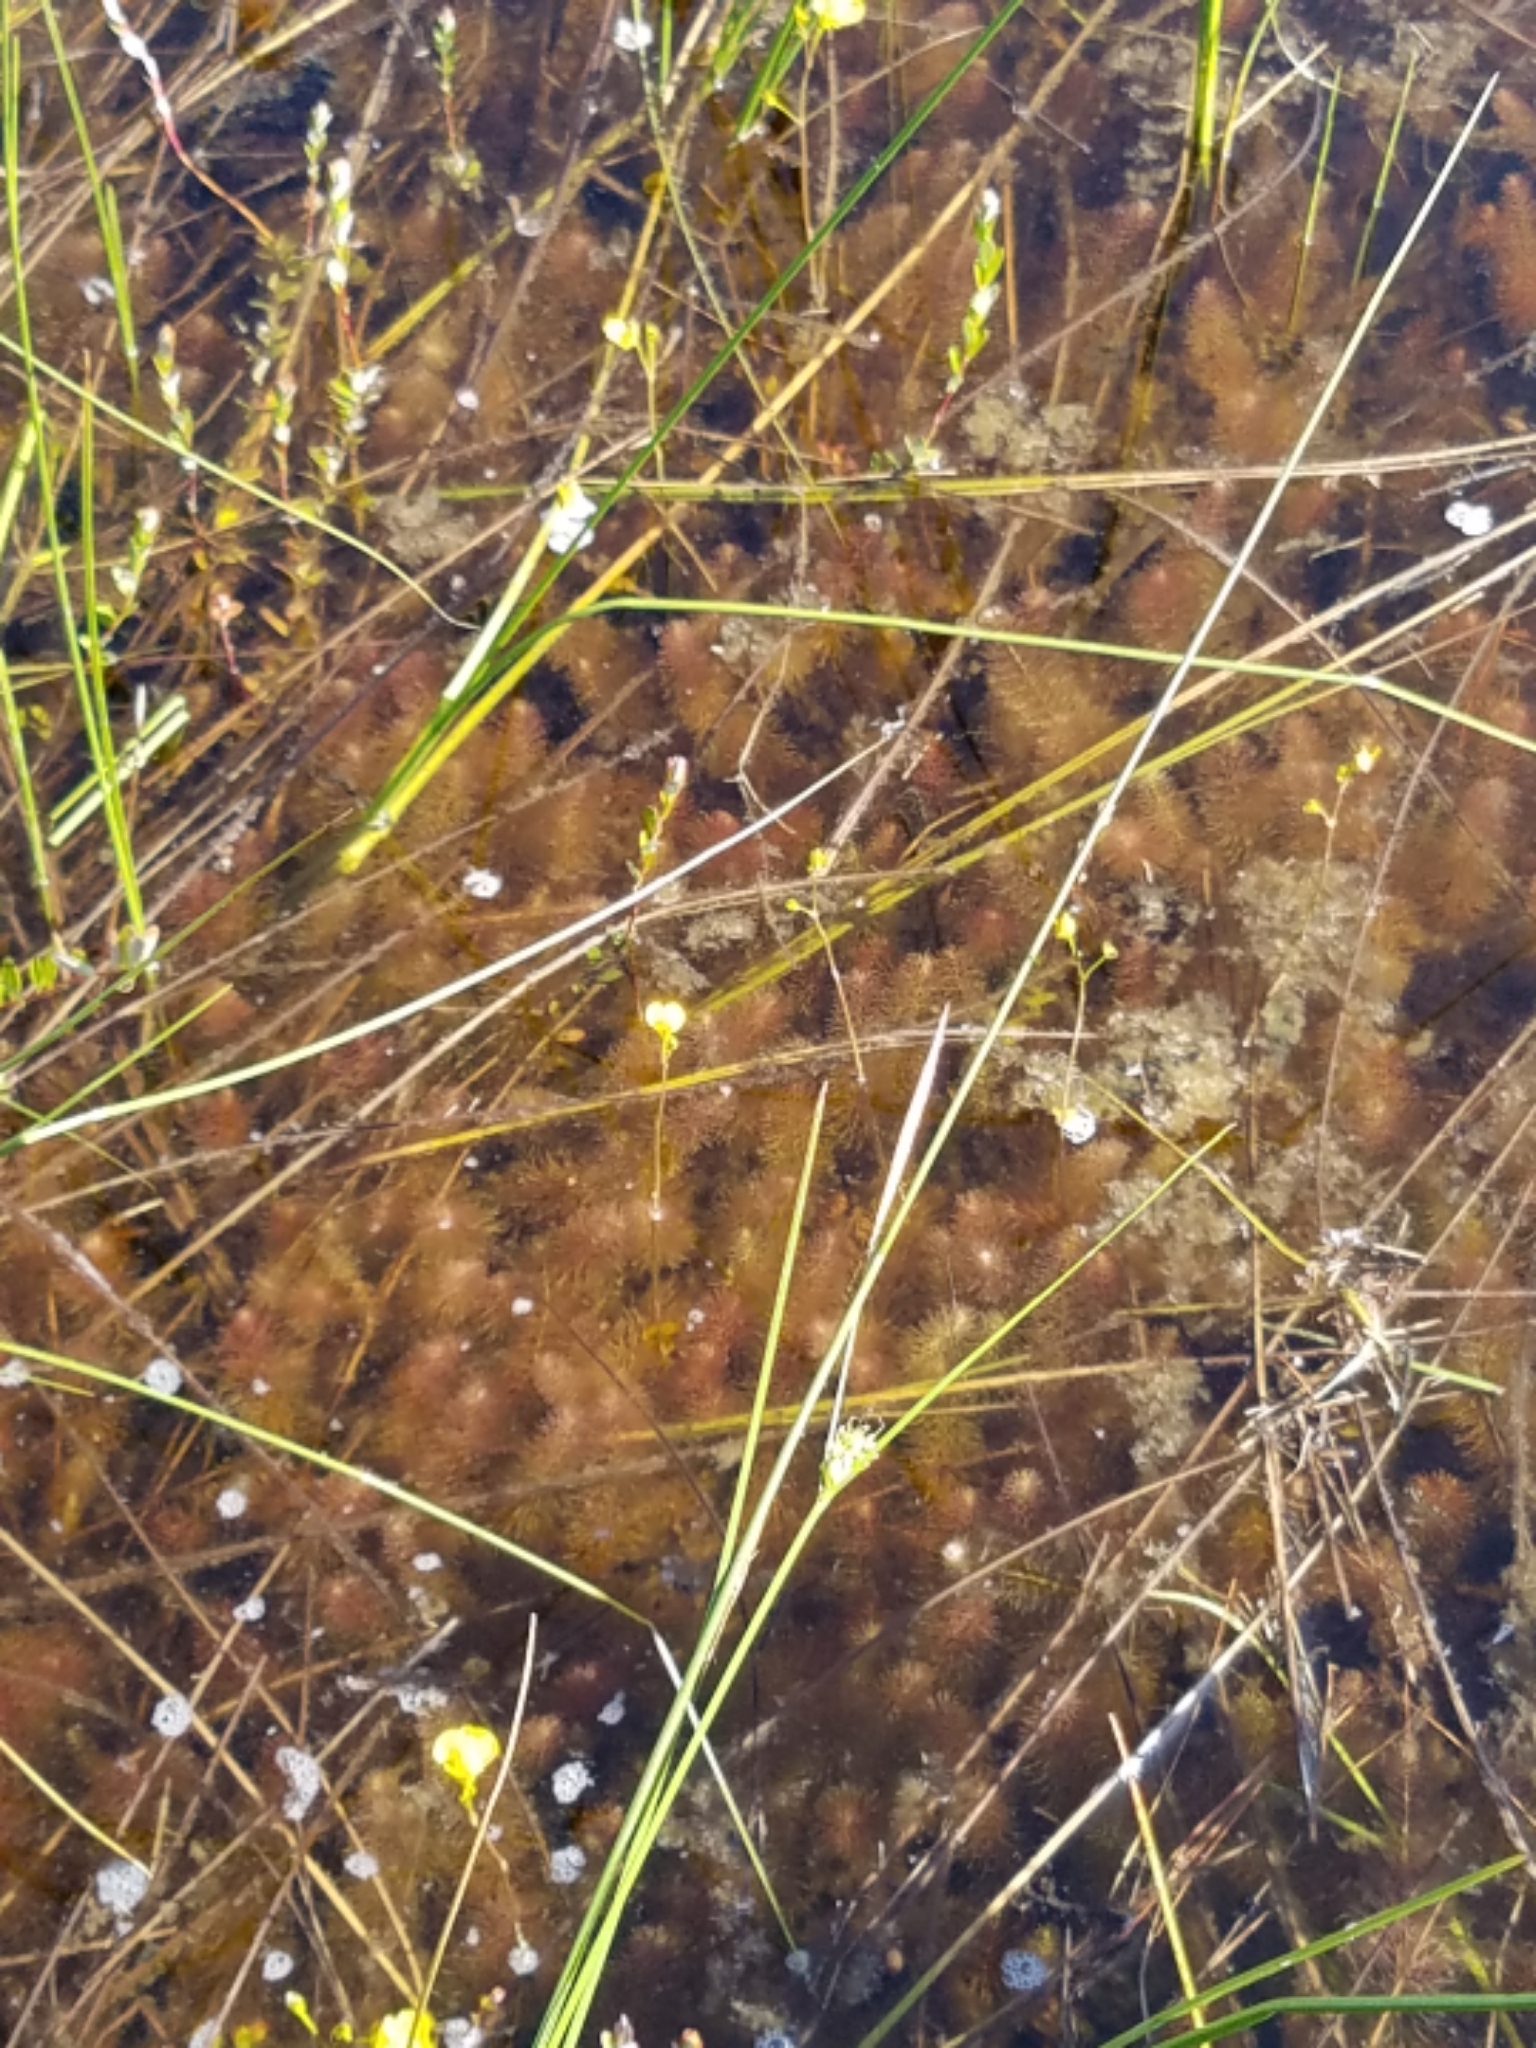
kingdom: Plantae
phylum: Tracheophyta
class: Magnoliopsida
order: Lamiales
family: Lentibulariaceae
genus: Utricularia
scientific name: Utricularia intermedia
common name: Intermediate bladderwort
